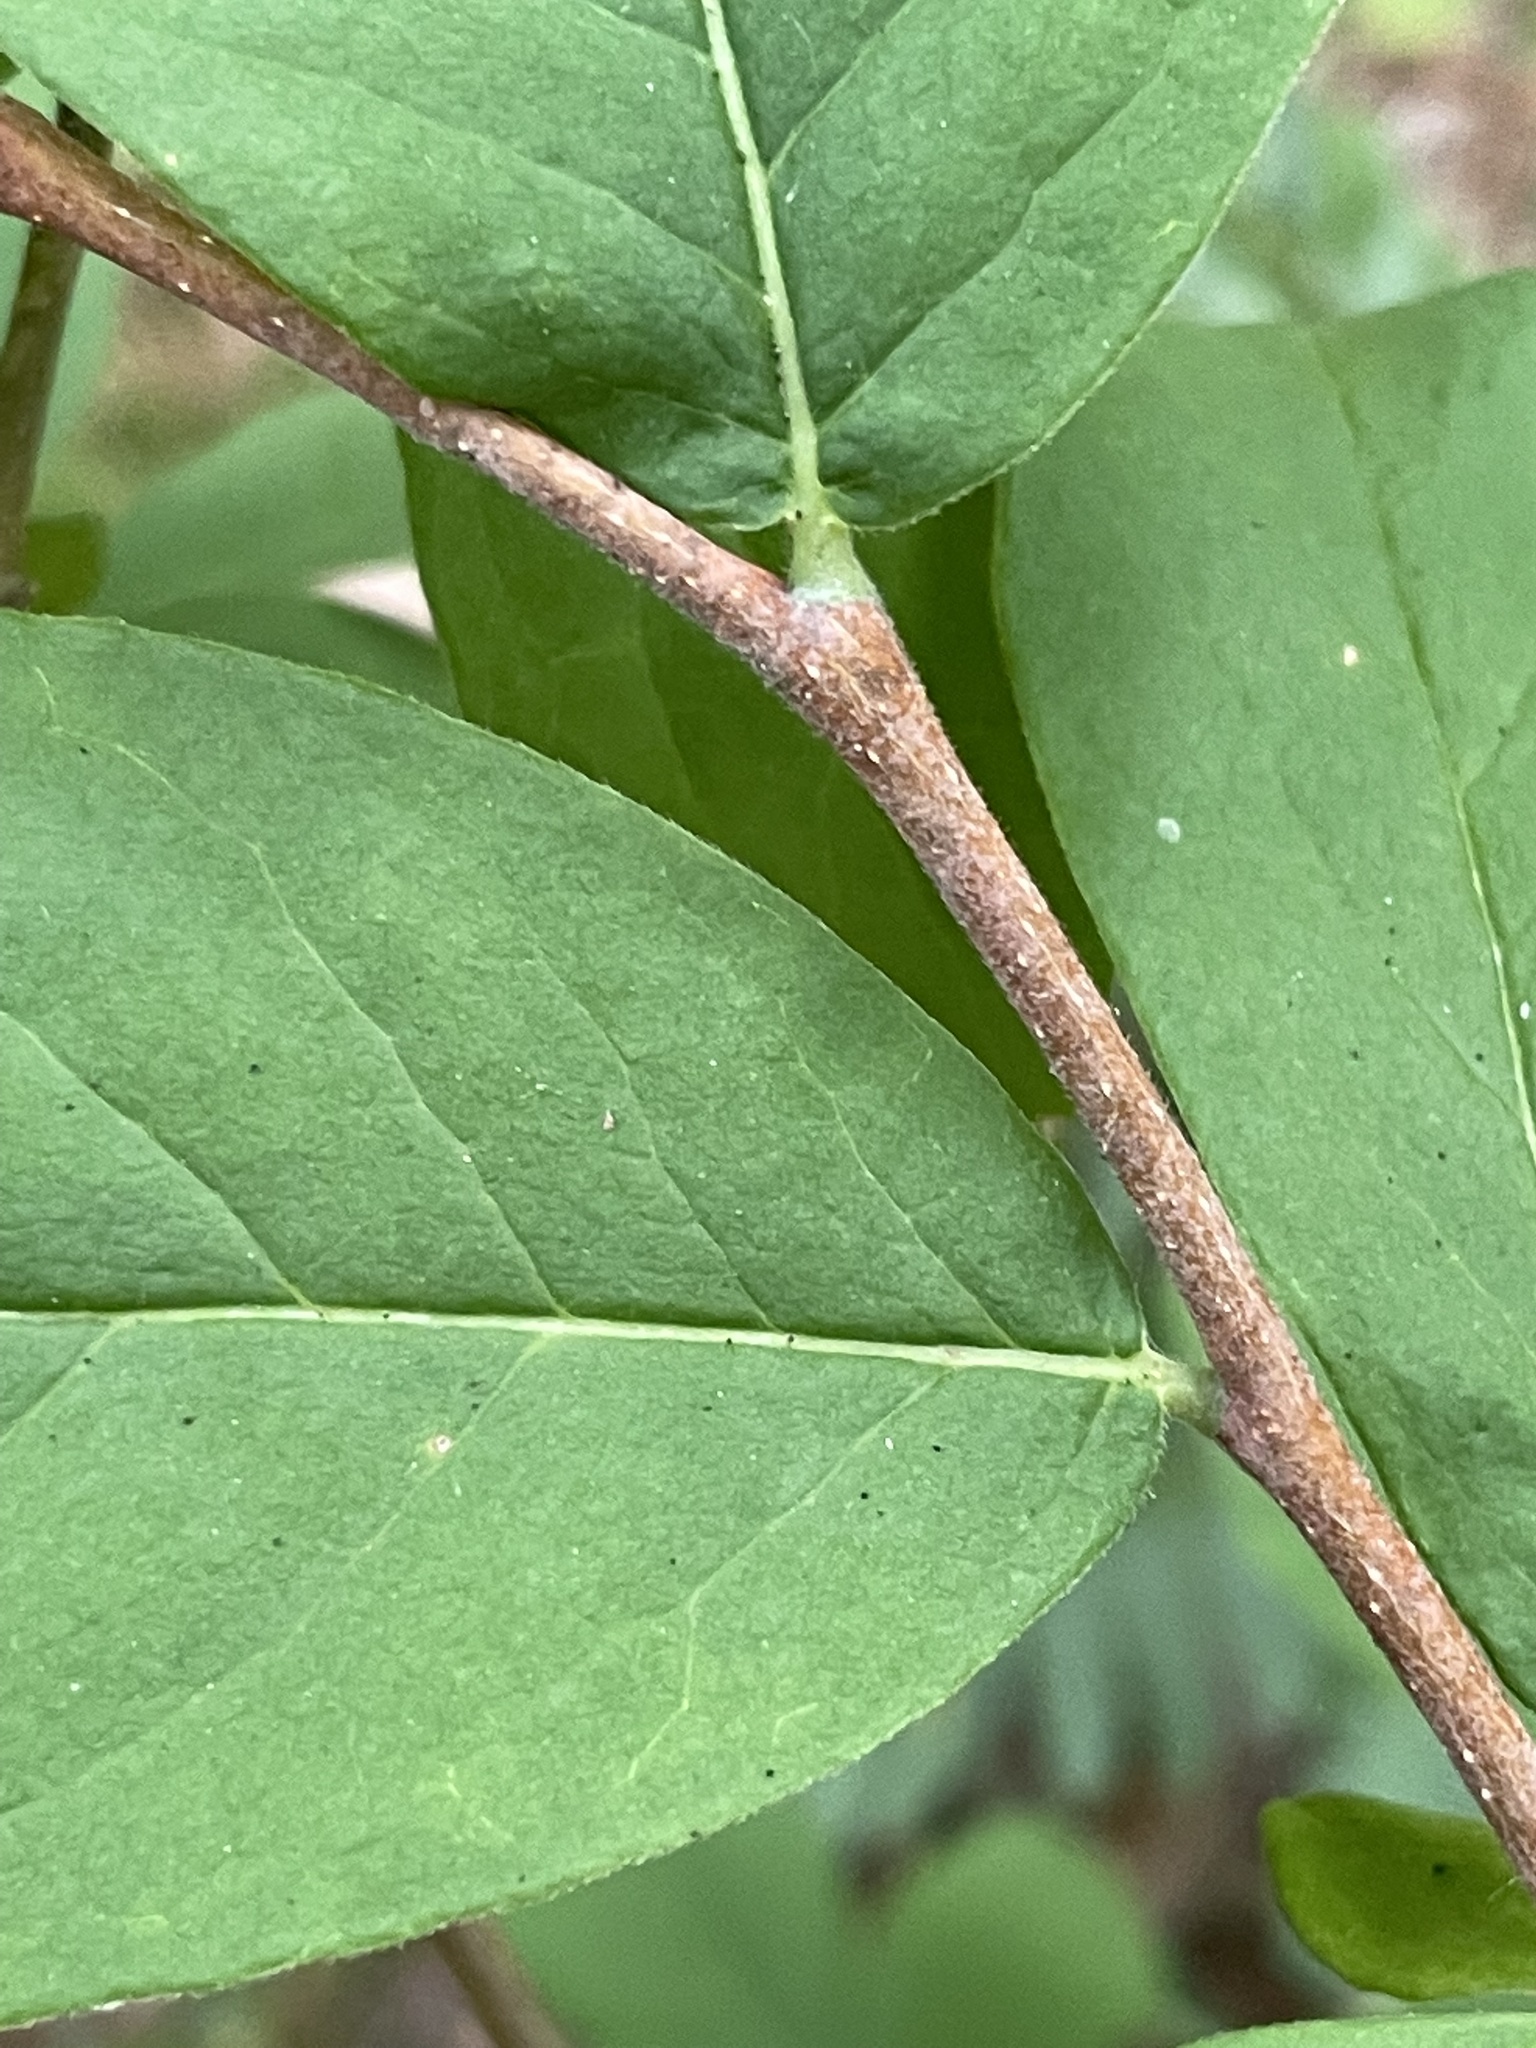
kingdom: Plantae
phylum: Tracheophyta
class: Magnoliopsida
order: Malvales
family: Thymelaeaceae
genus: Dirca
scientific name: Dirca palustris
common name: Leatherwood
